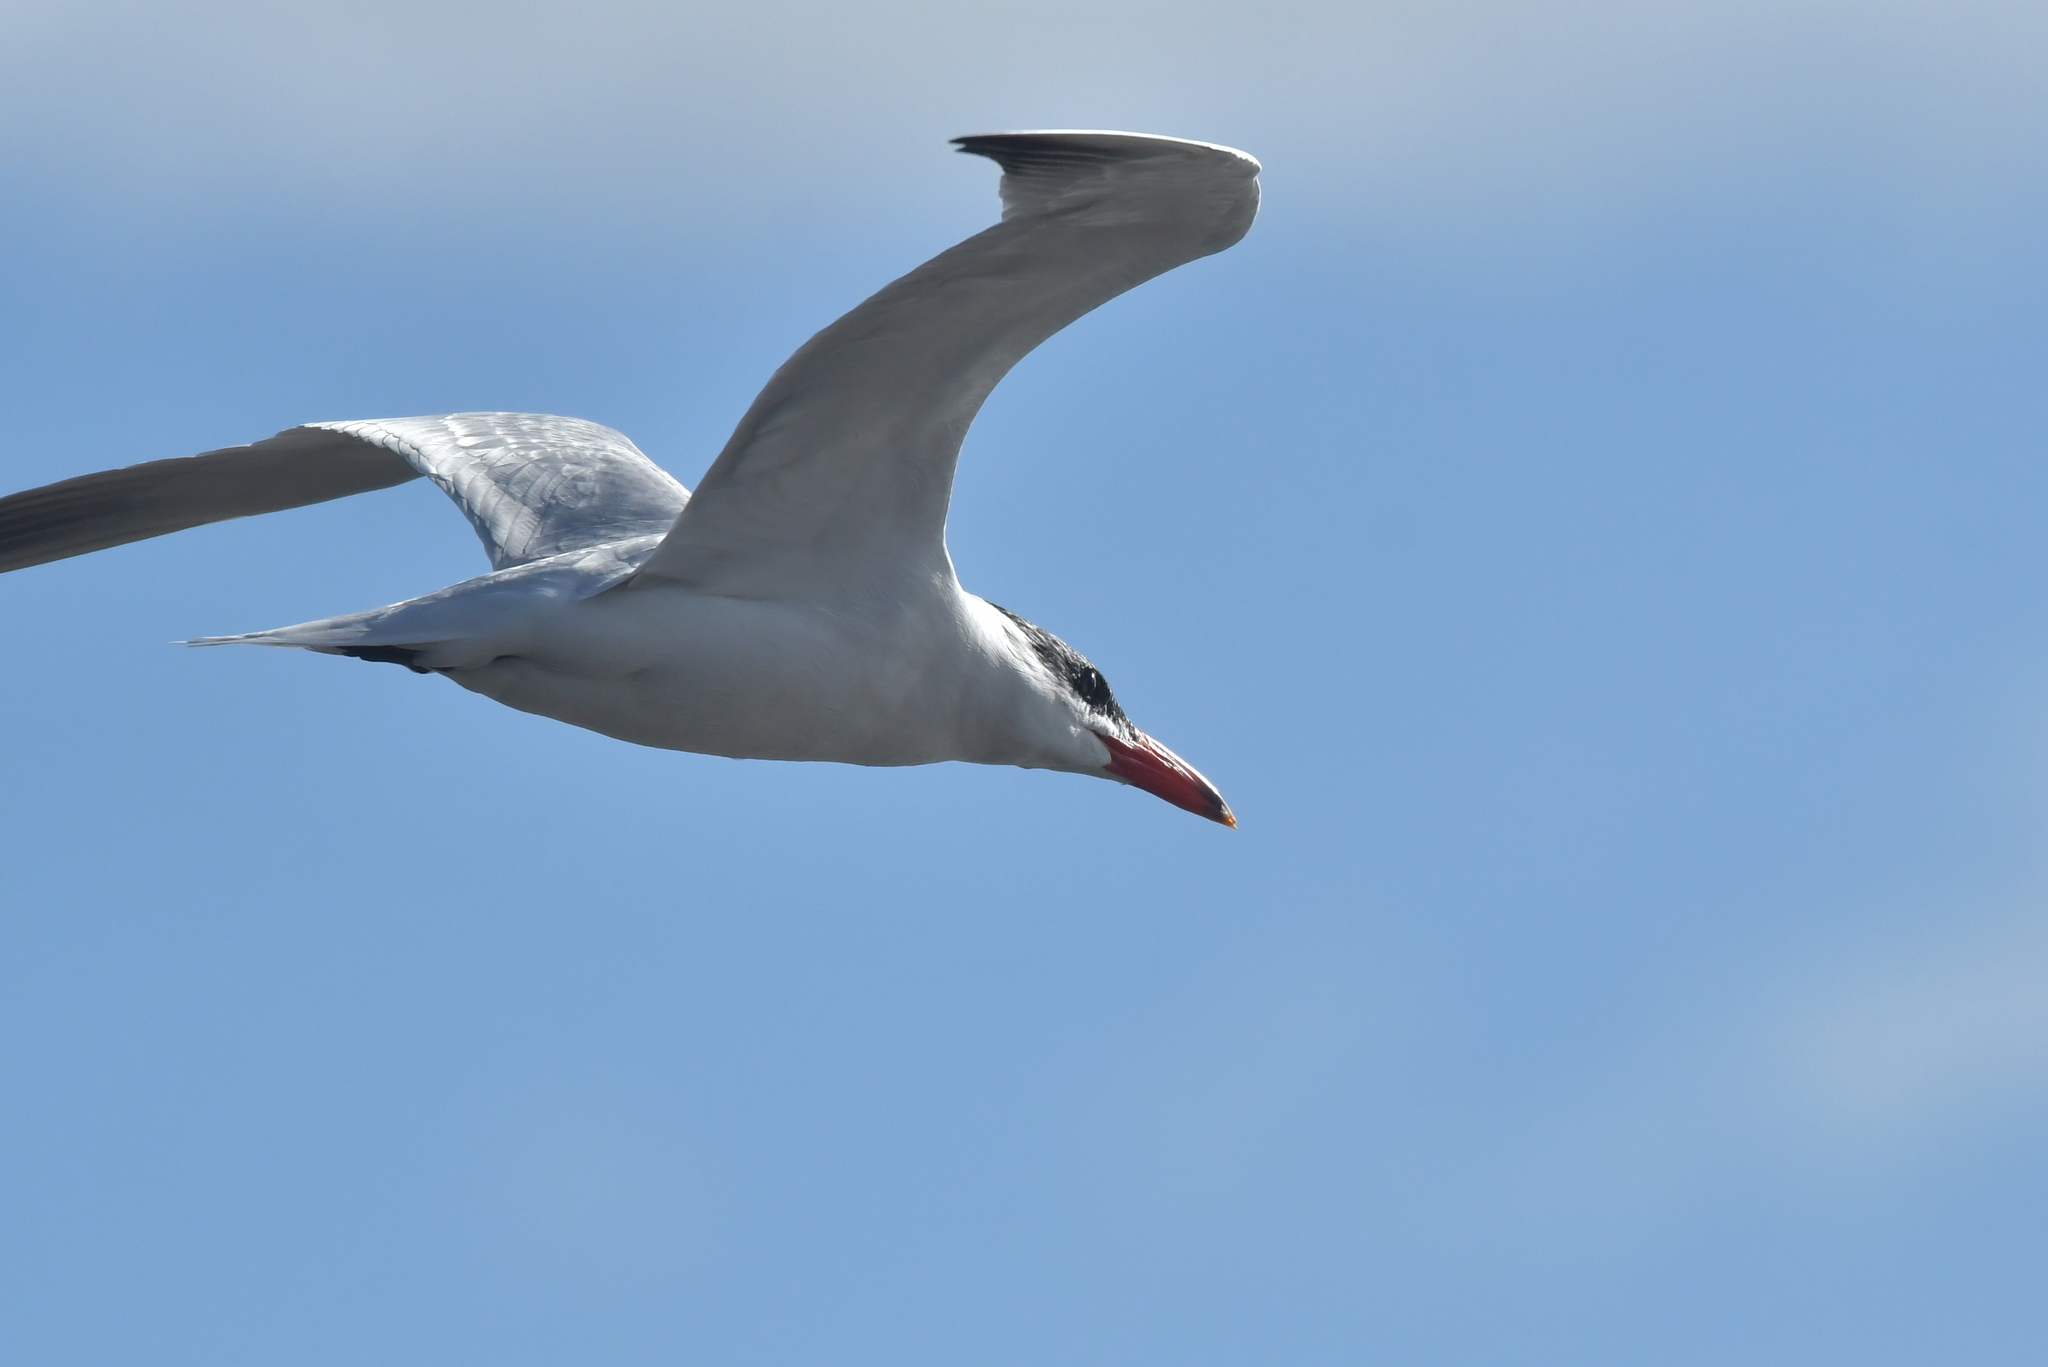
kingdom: Animalia
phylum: Chordata
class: Aves
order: Charadriiformes
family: Laridae
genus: Hydroprogne
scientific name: Hydroprogne caspia
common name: Caspian tern
